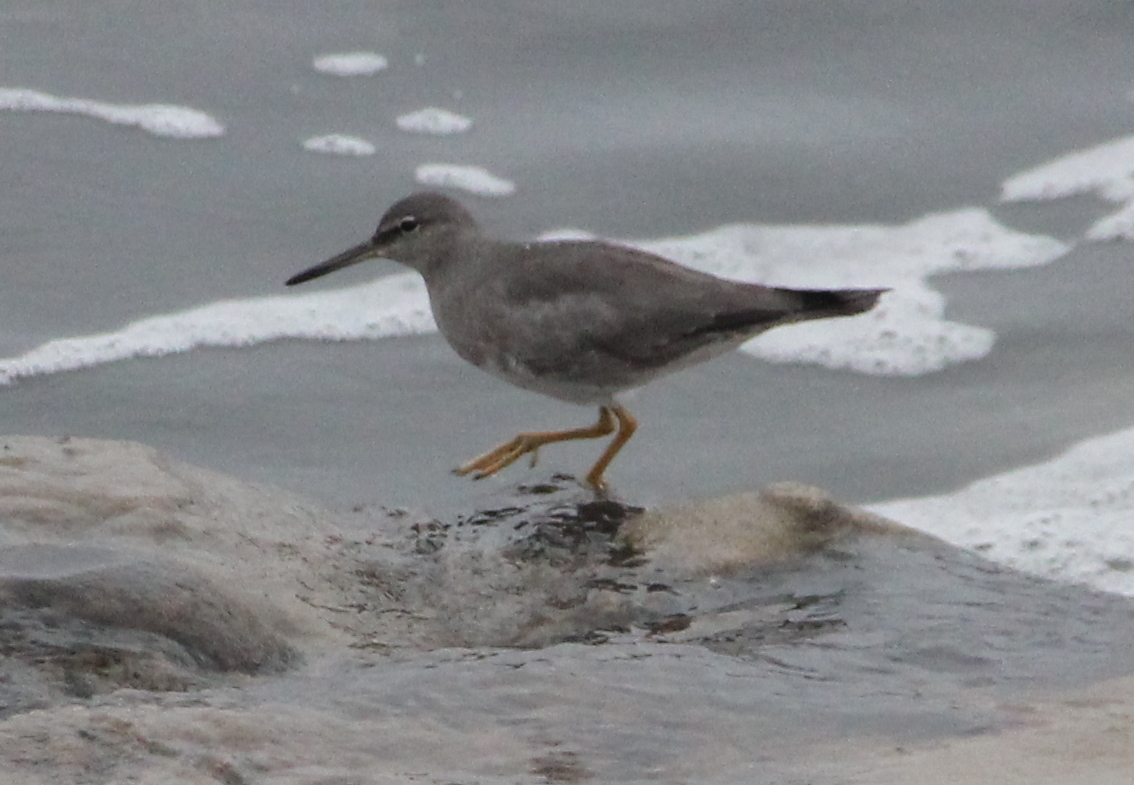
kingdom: Animalia
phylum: Chordata
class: Aves
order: Charadriiformes
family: Scolopacidae
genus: Tringa
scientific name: Tringa incana
